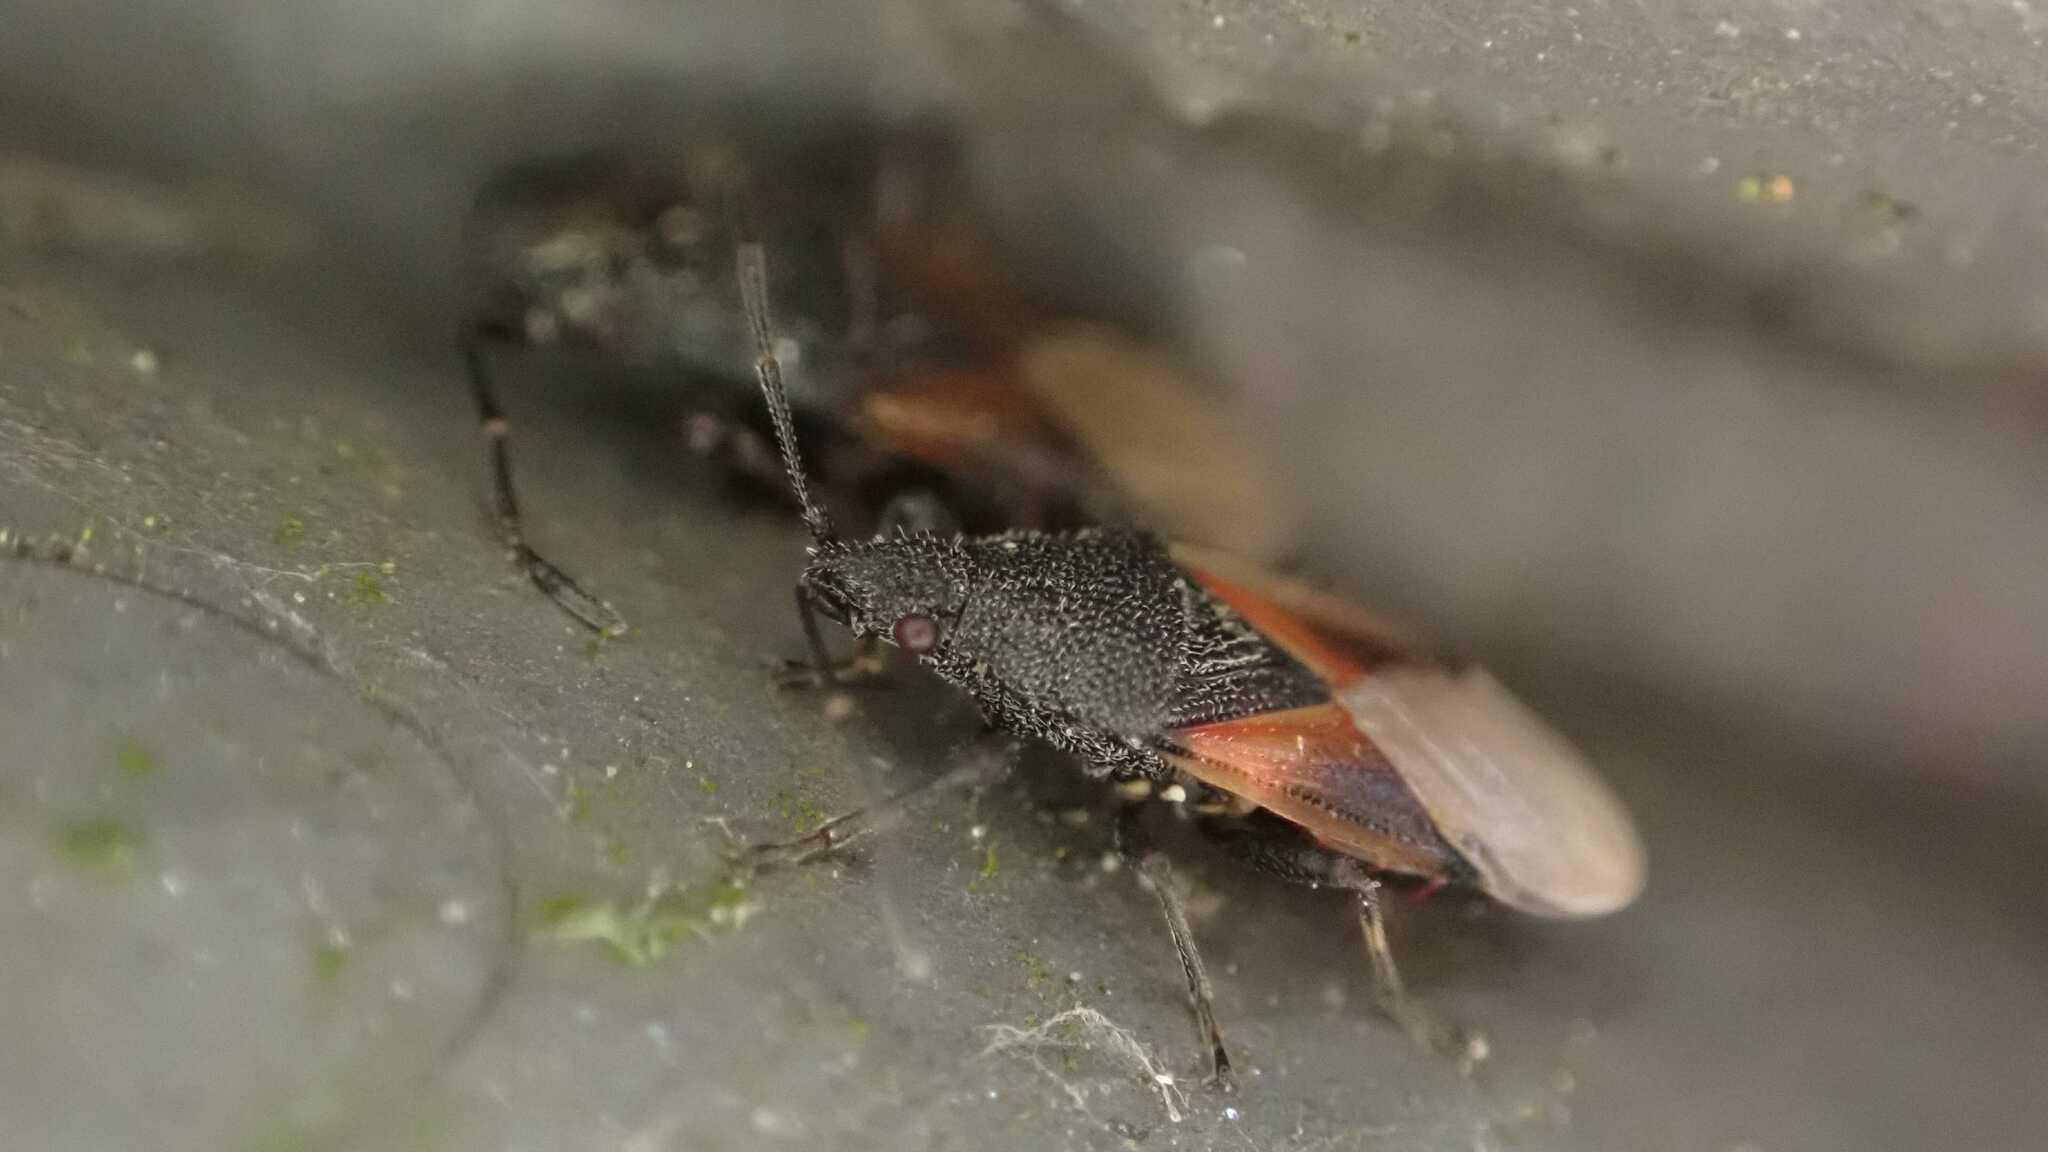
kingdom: Animalia
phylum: Arthropoda
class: Insecta
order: Hemiptera
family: Oxycarenidae
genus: Oxycarenus
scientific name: Oxycarenus lavaterae
